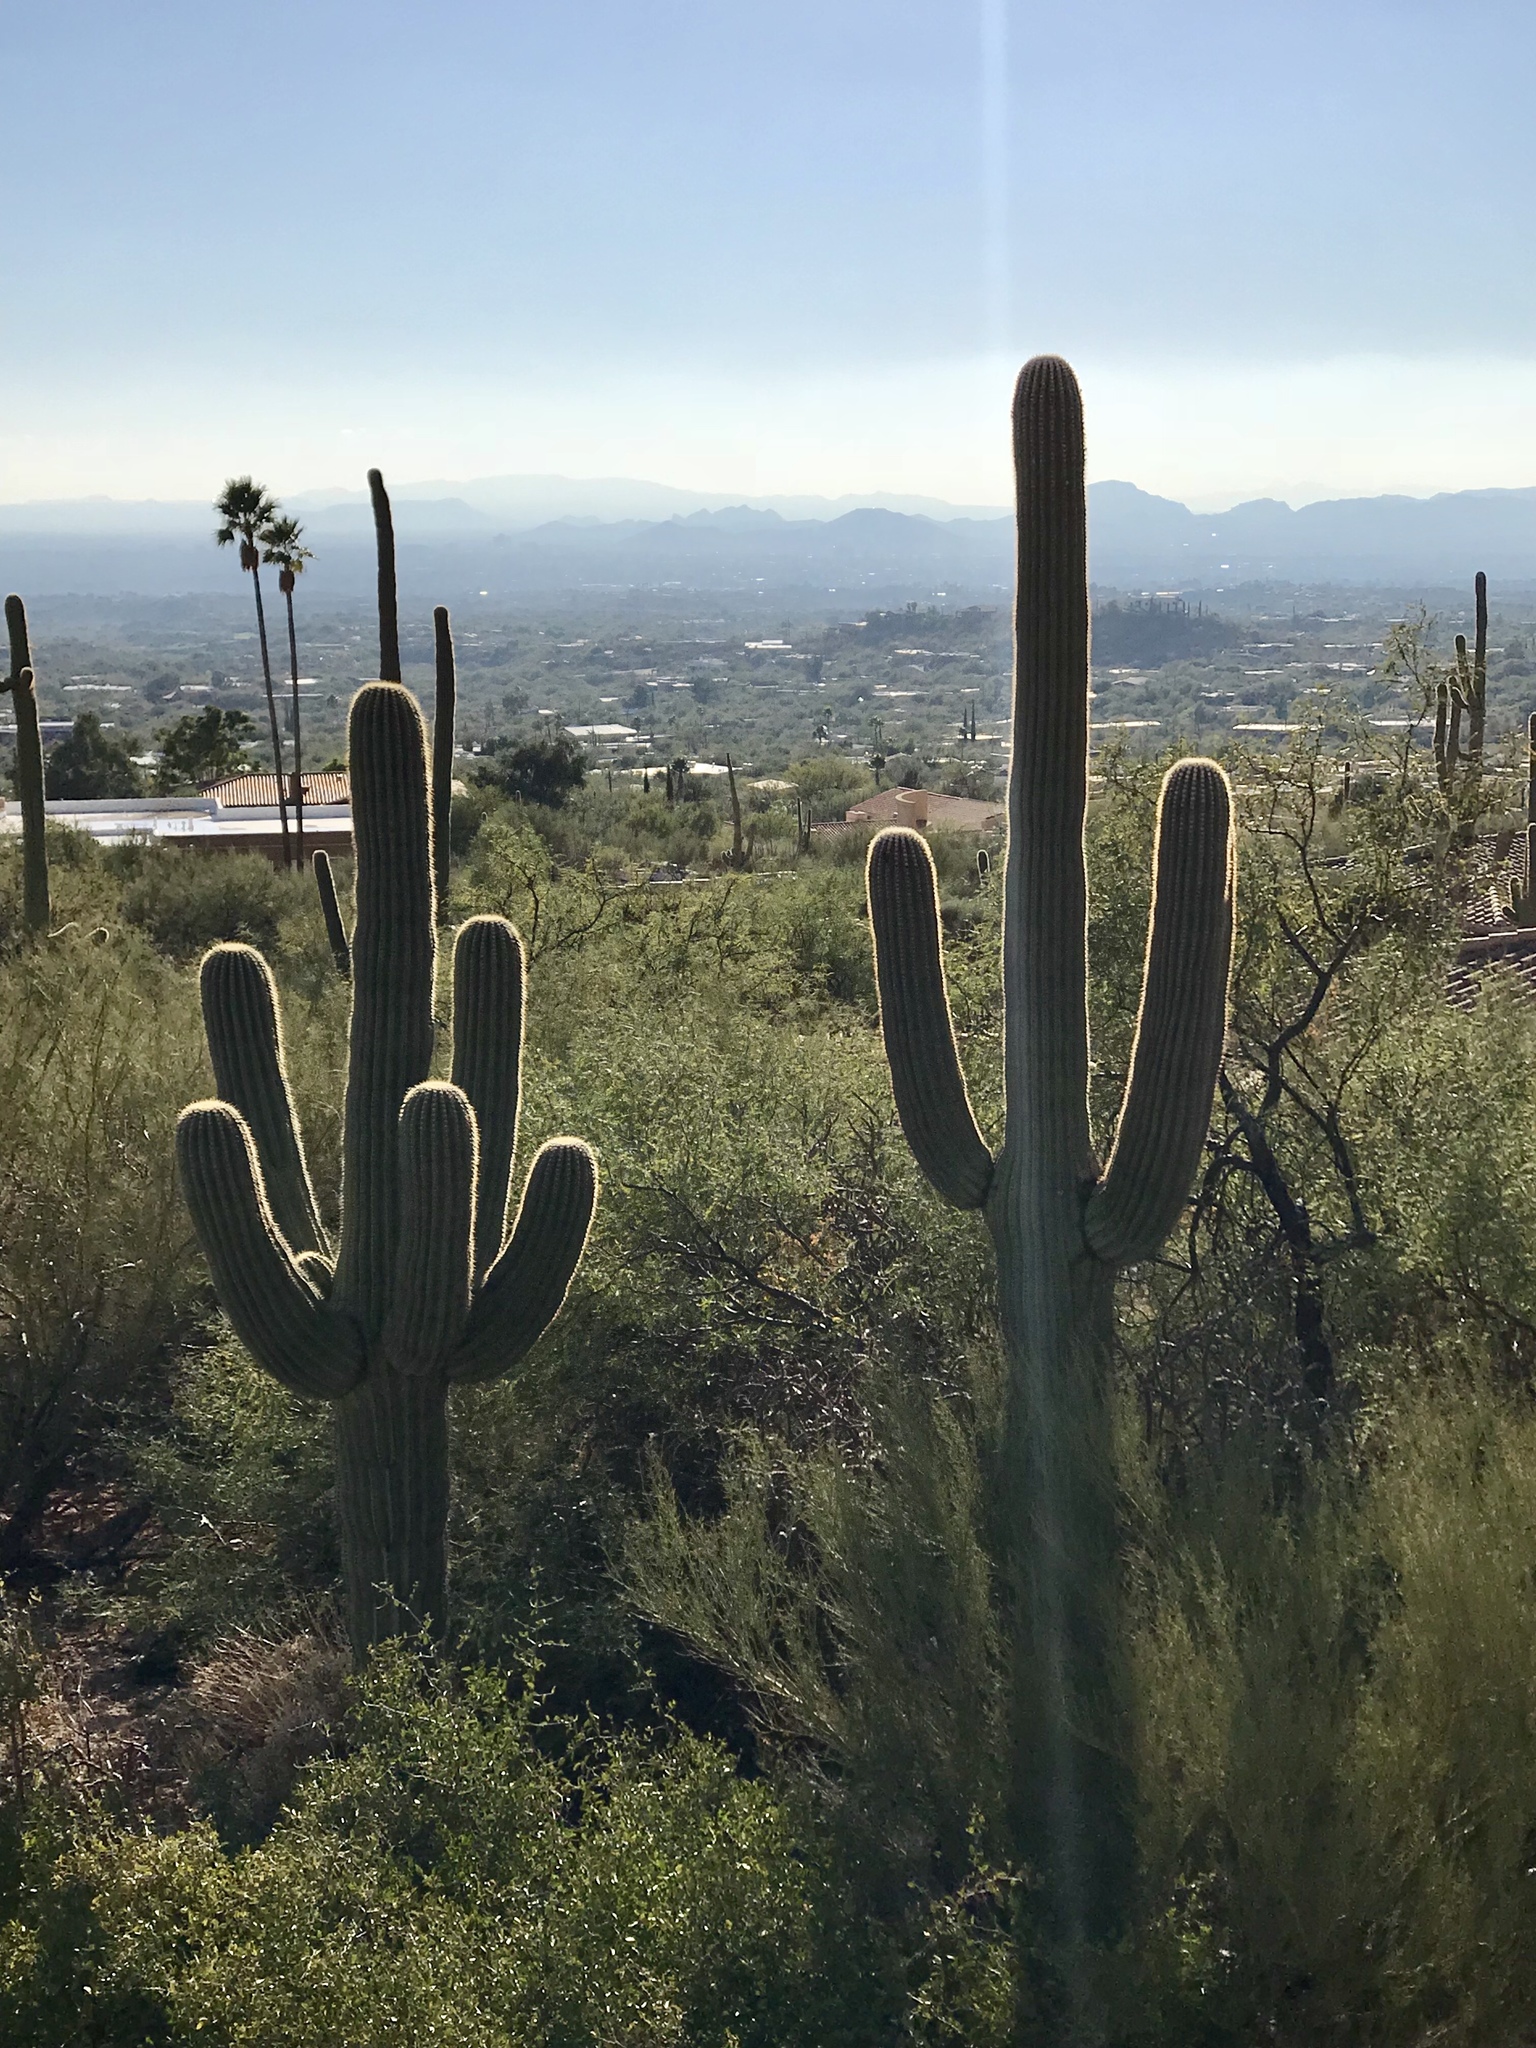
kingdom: Plantae
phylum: Tracheophyta
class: Magnoliopsida
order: Caryophyllales
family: Cactaceae
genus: Carnegiea
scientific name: Carnegiea gigantea
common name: Saguaro
